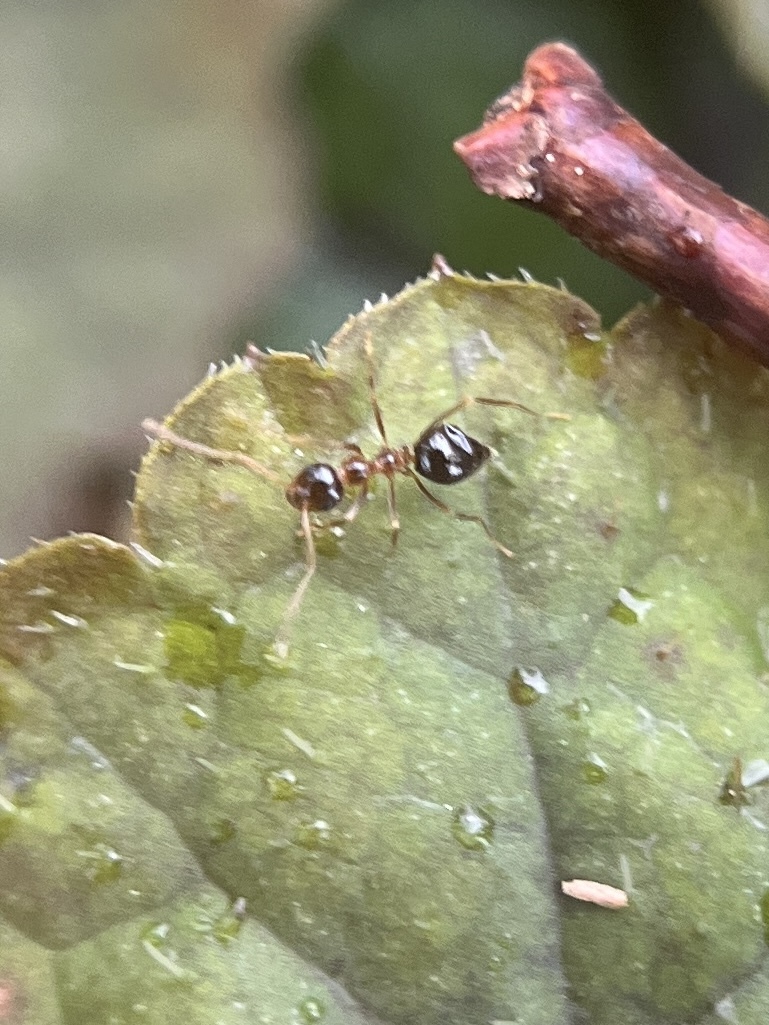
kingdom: Animalia
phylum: Arthropoda
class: Insecta
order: Hymenoptera
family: Formicidae
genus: Prenolepis
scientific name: Prenolepis imparis
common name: Small honey ant
